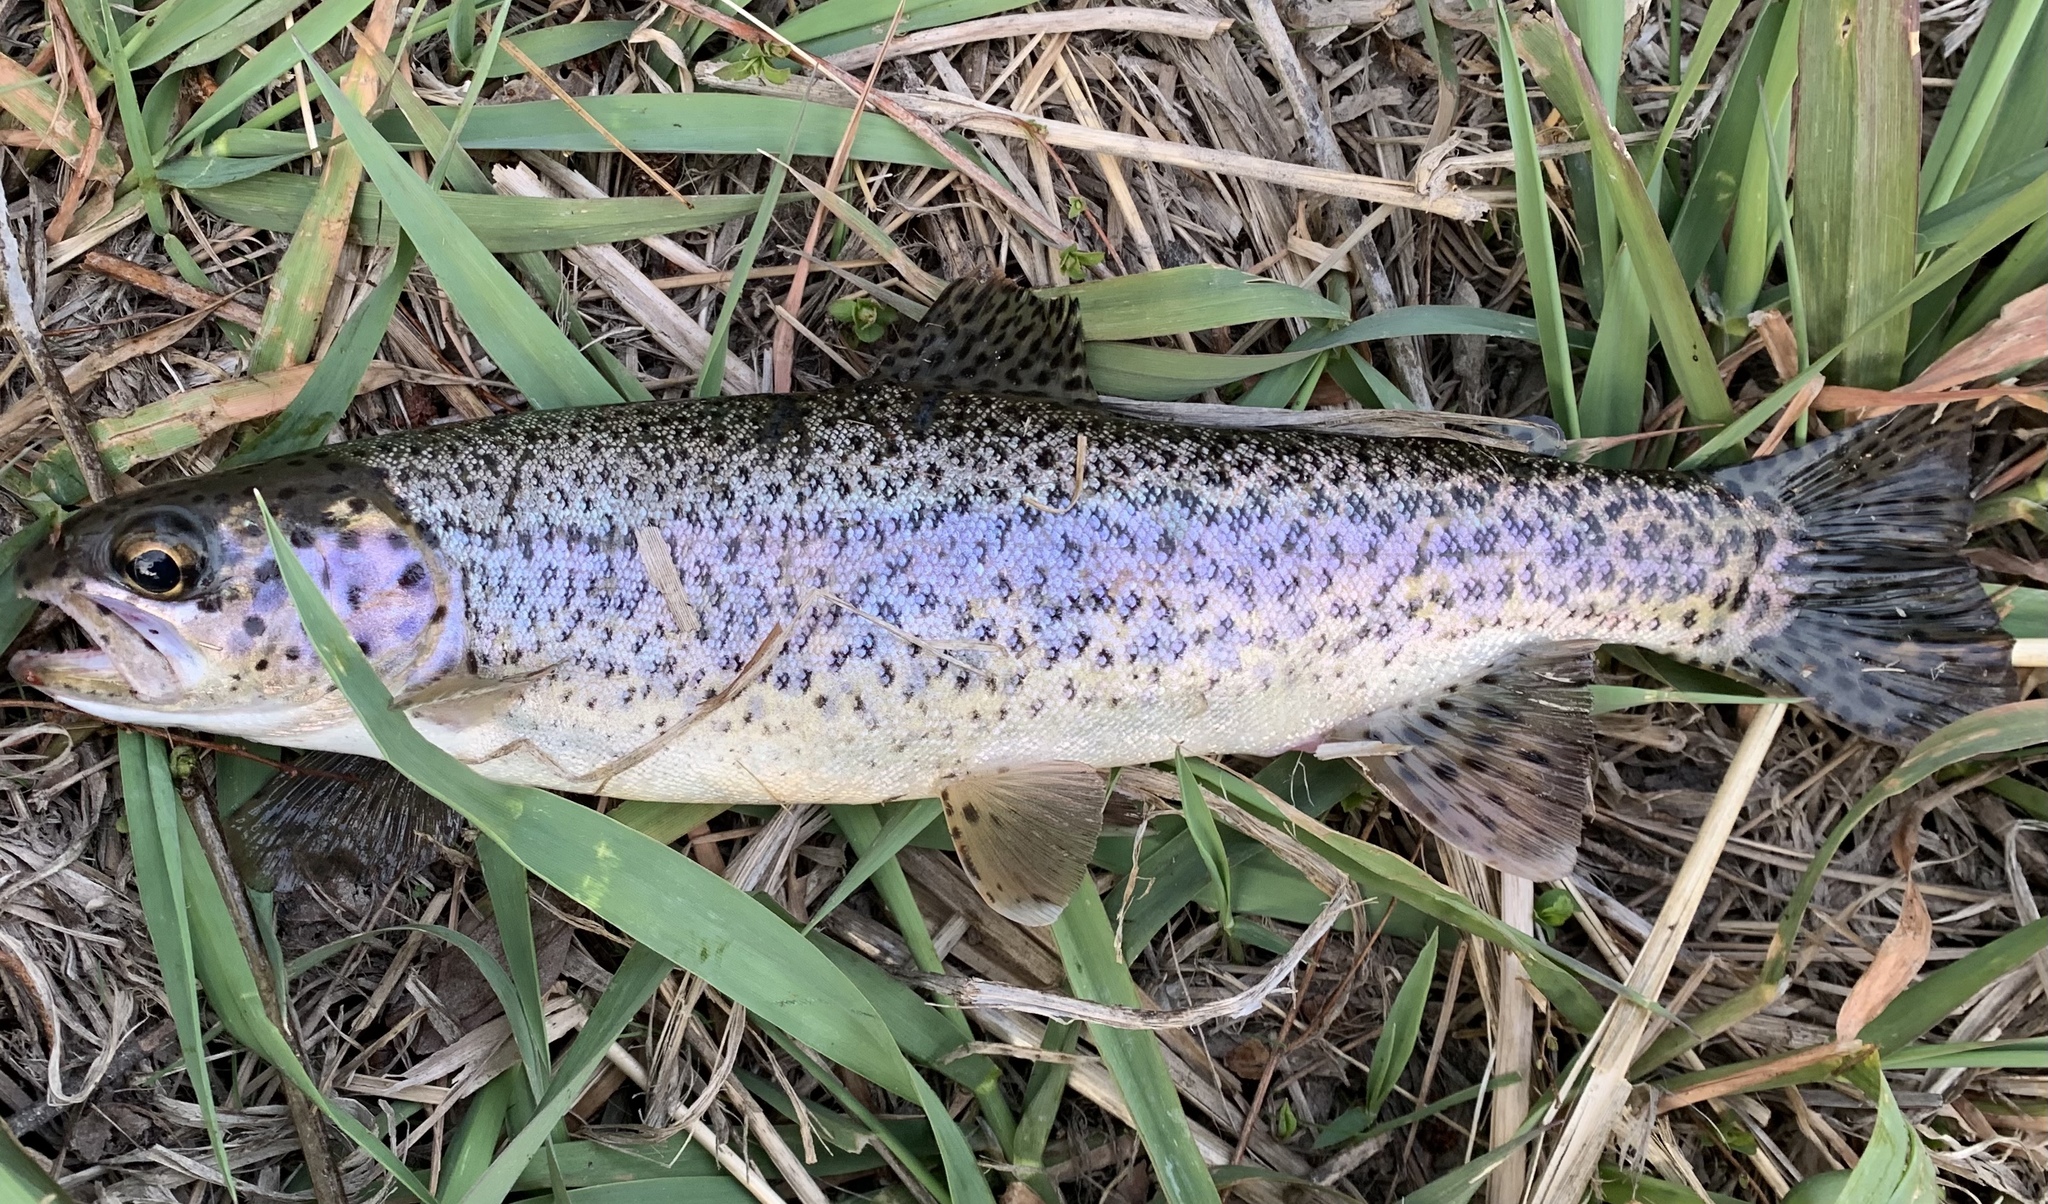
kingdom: Animalia
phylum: Chordata
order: Salmoniformes
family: Salmonidae
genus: Oncorhynchus
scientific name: Oncorhynchus mykiss
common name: Rainbow trout
